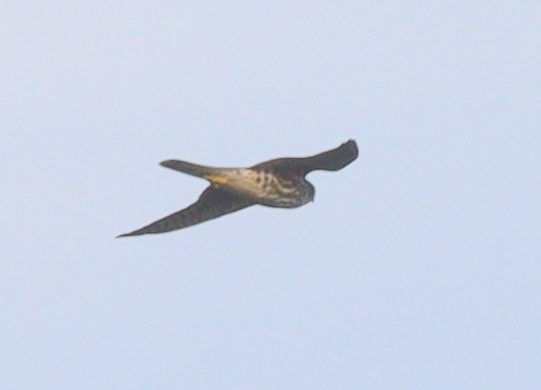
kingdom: Animalia
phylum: Chordata
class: Aves
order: Falconiformes
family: Falconidae
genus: Falco
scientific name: Falco columbarius
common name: Merlin
